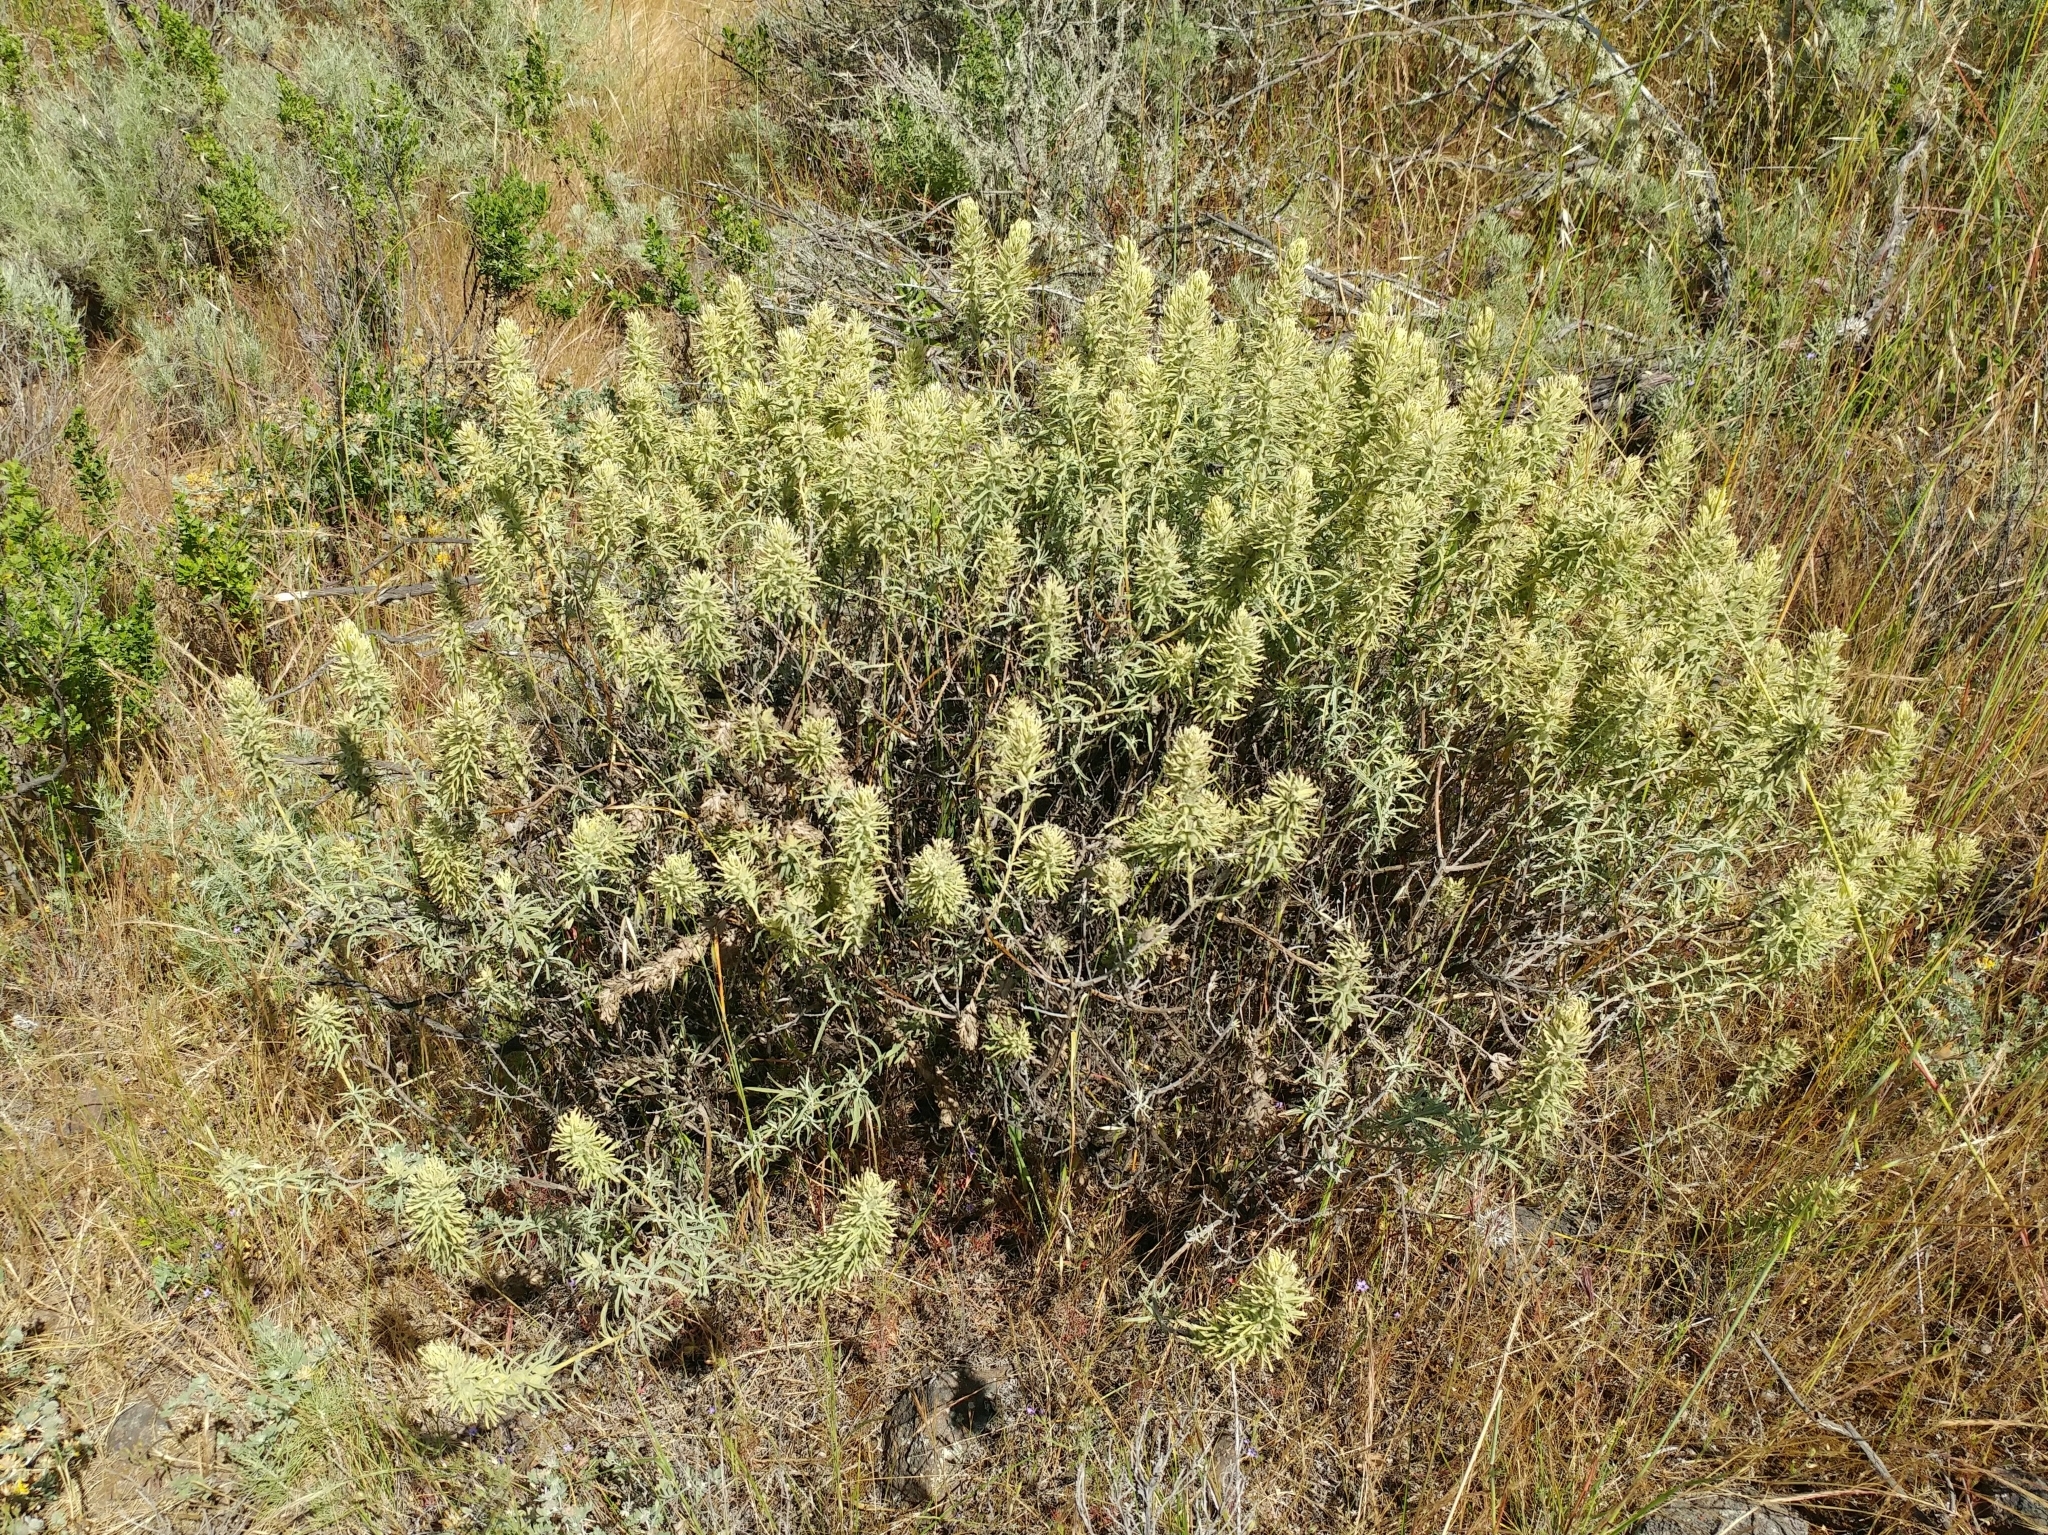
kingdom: Plantae
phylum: Tracheophyta
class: Magnoliopsida
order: Lamiales
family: Orobanchaceae
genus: Castilleja
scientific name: Castilleja grisea
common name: San clemente island indian paintbrush
